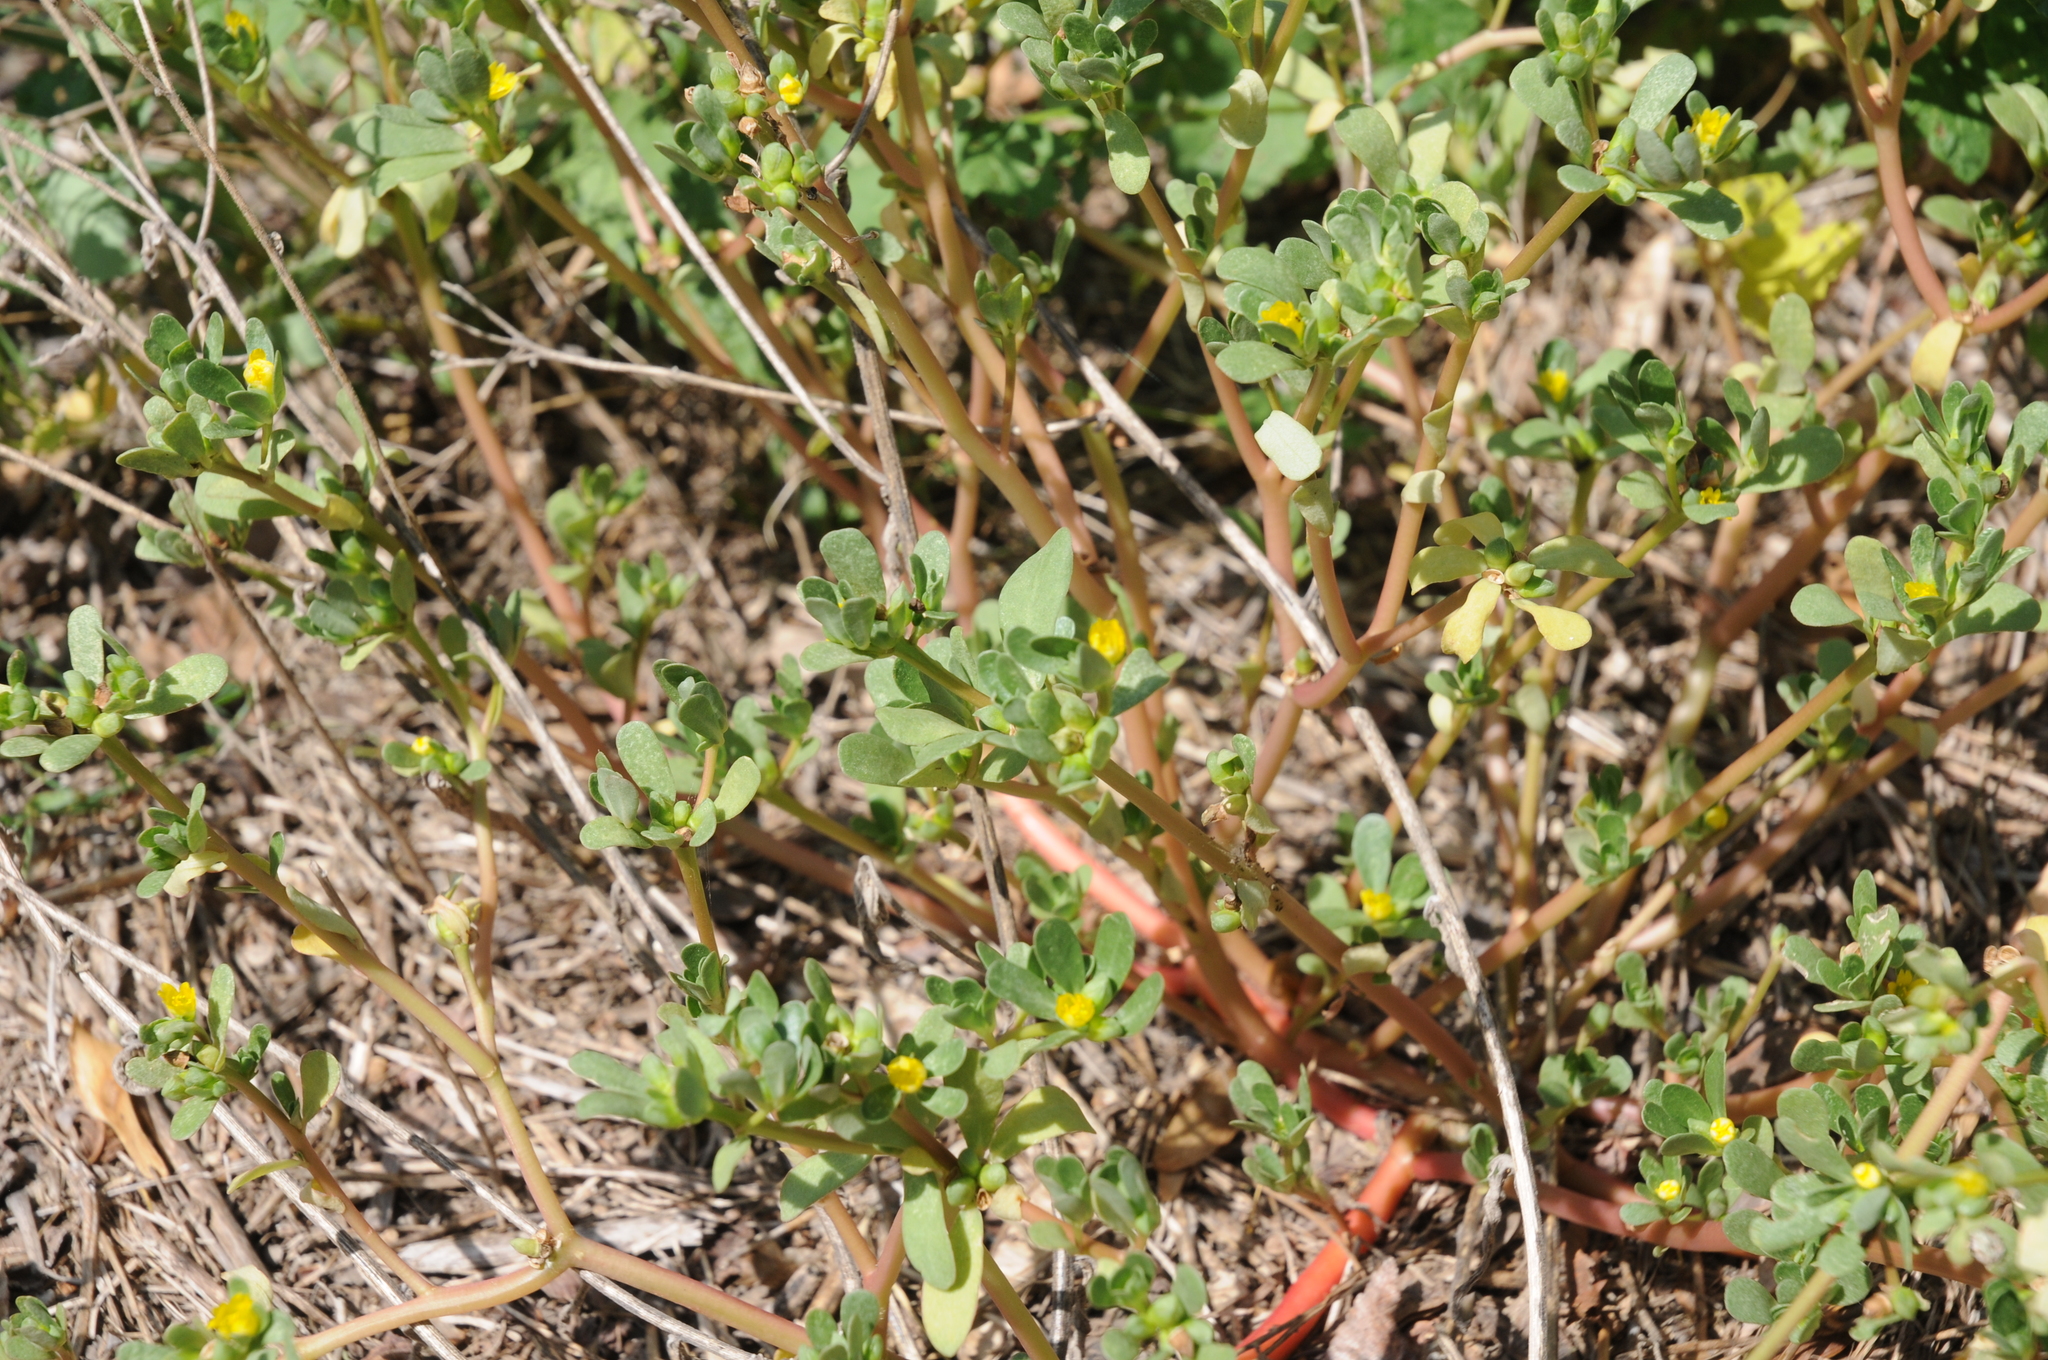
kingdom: Plantae
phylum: Tracheophyta
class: Magnoliopsida
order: Caryophyllales
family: Portulacaceae
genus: Portulaca
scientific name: Portulaca oleracea
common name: Common purslane
